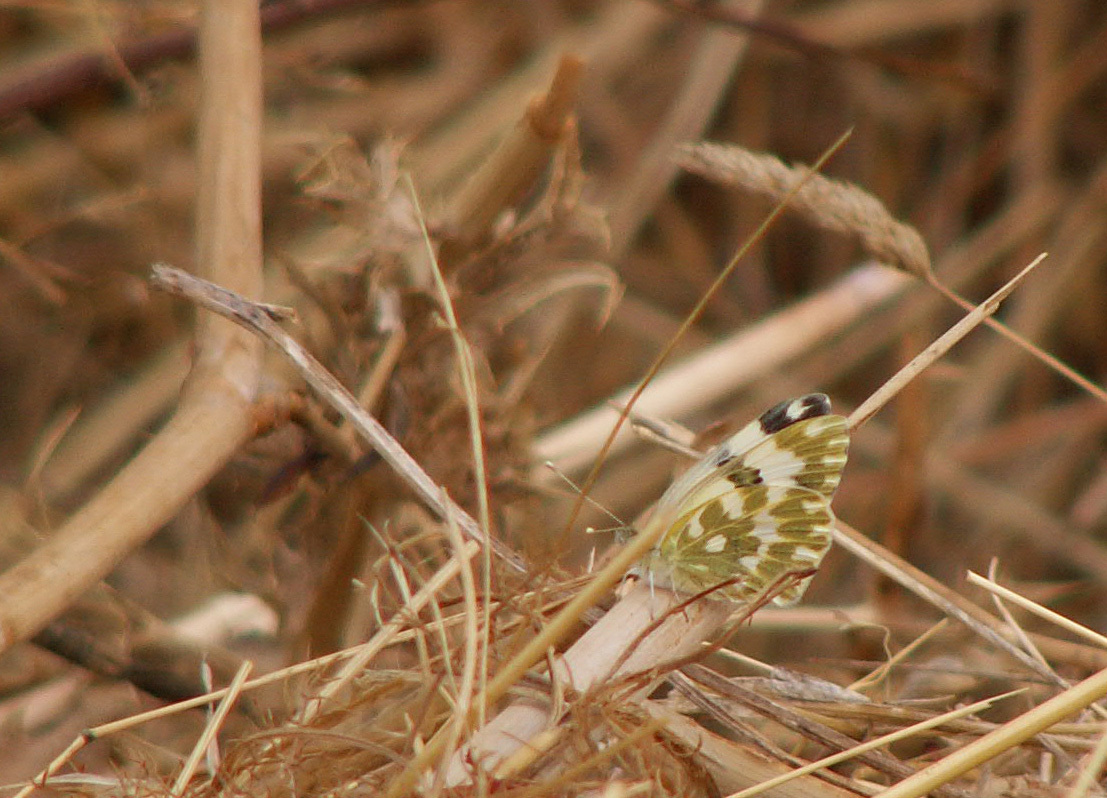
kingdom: Animalia
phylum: Arthropoda
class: Insecta
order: Lepidoptera
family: Pieridae
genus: Pontia
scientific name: Pontia edusa
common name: Eastern bath white
